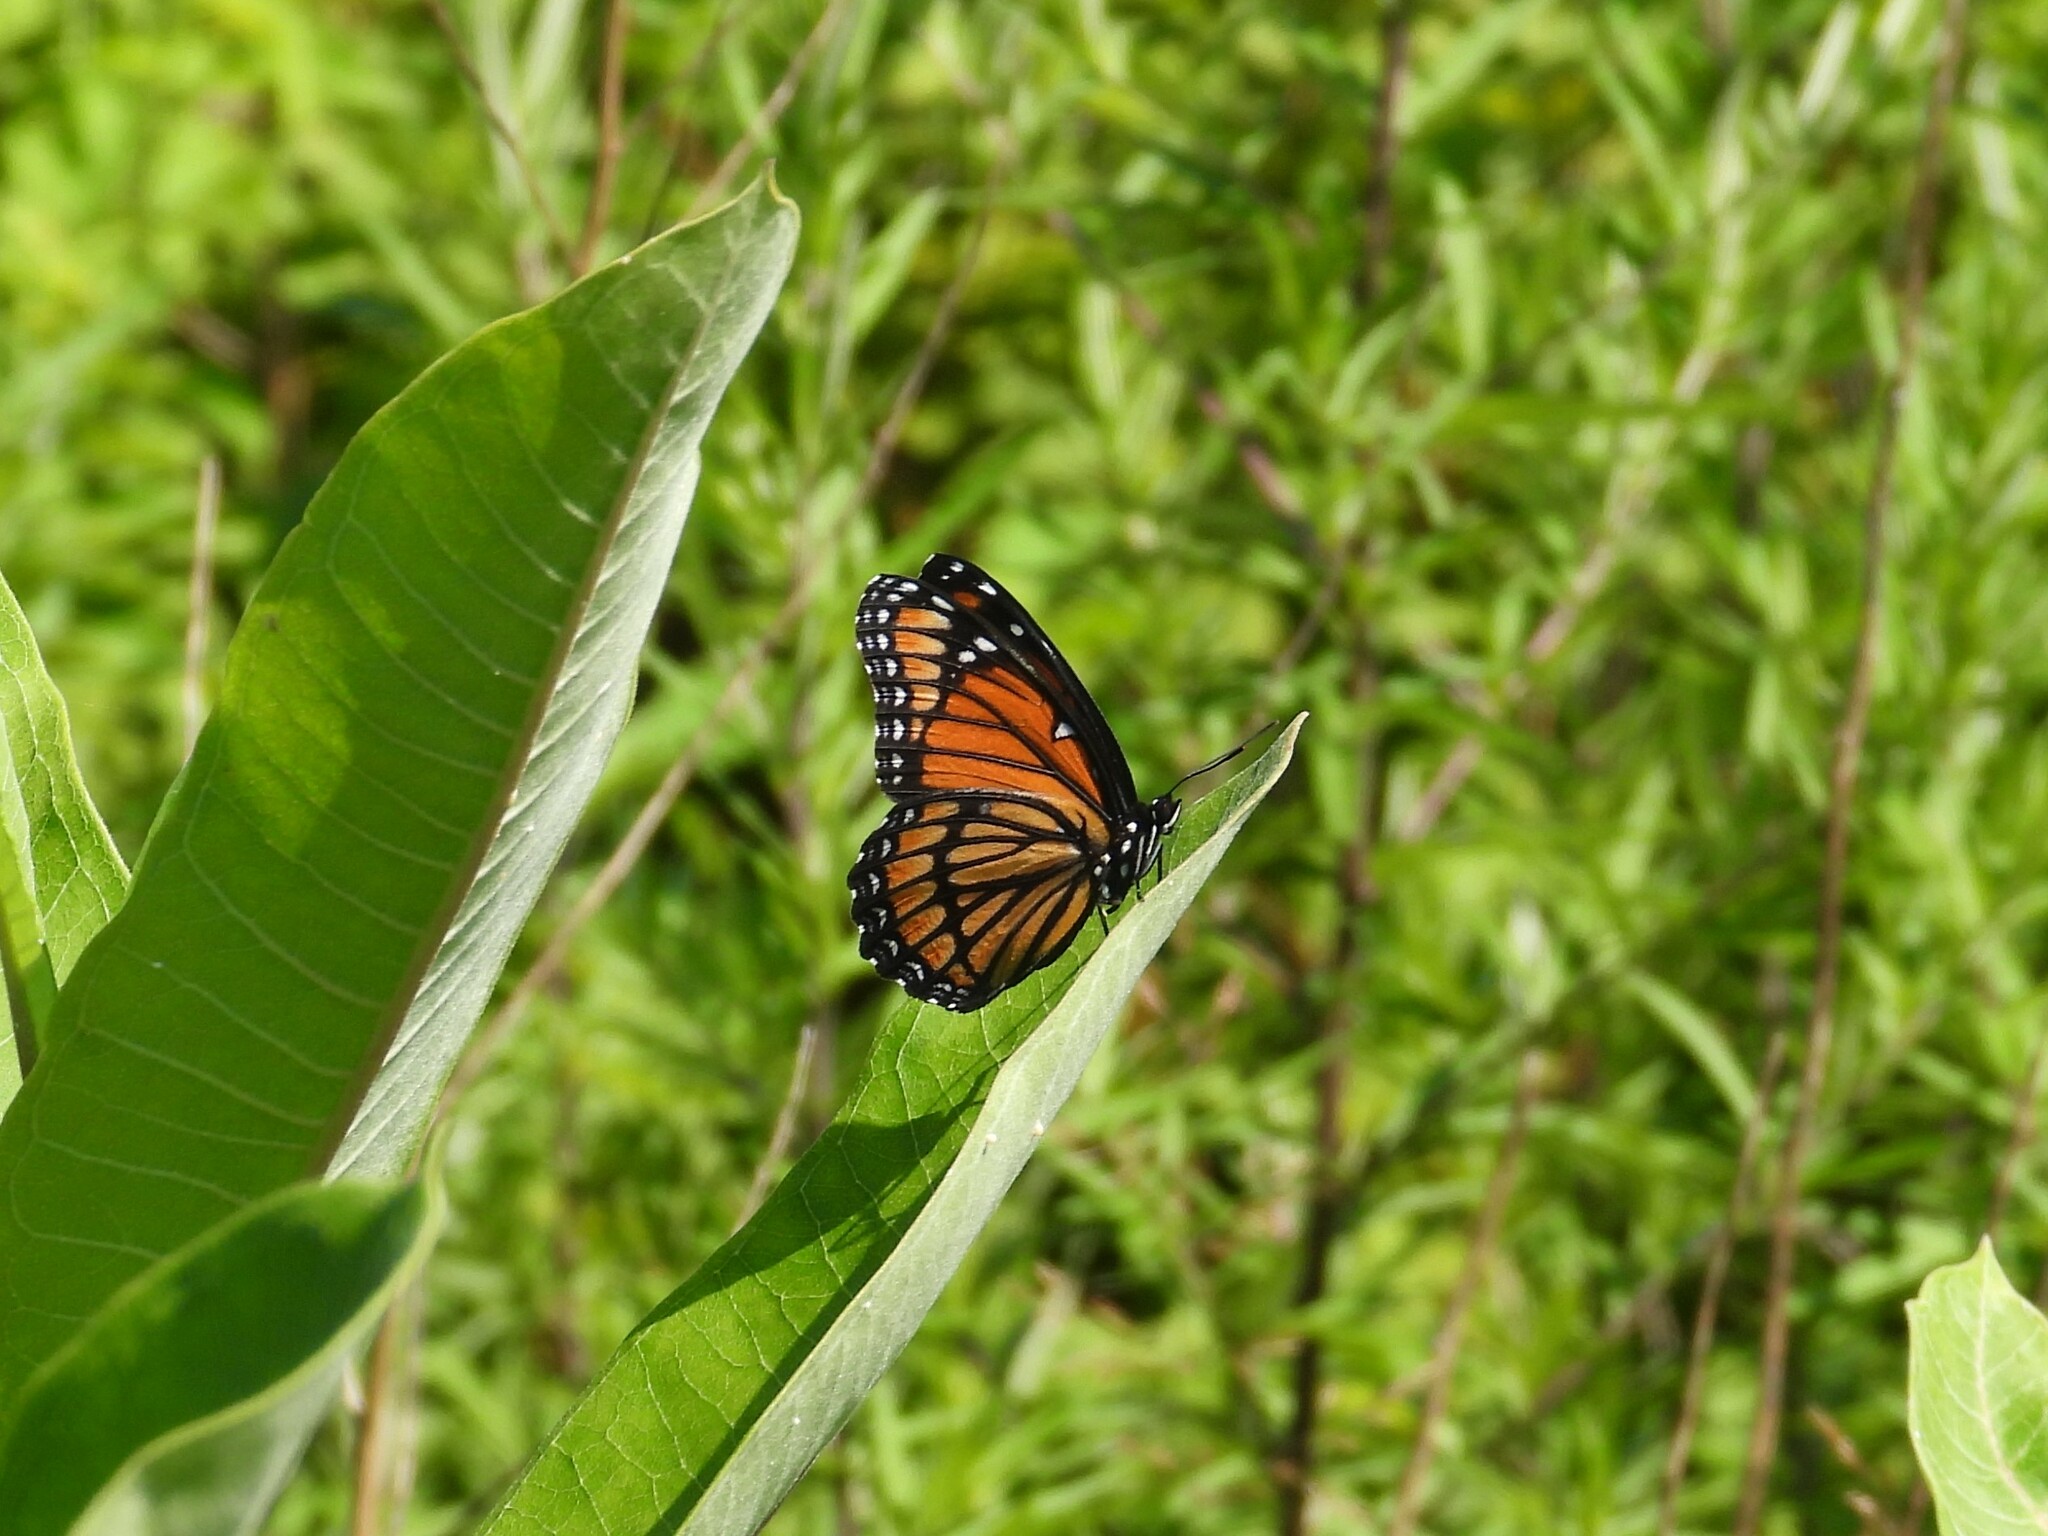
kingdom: Animalia
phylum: Arthropoda
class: Insecta
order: Lepidoptera
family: Nymphalidae
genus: Limenitis
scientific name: Limenitis archippus
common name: Viceroy
